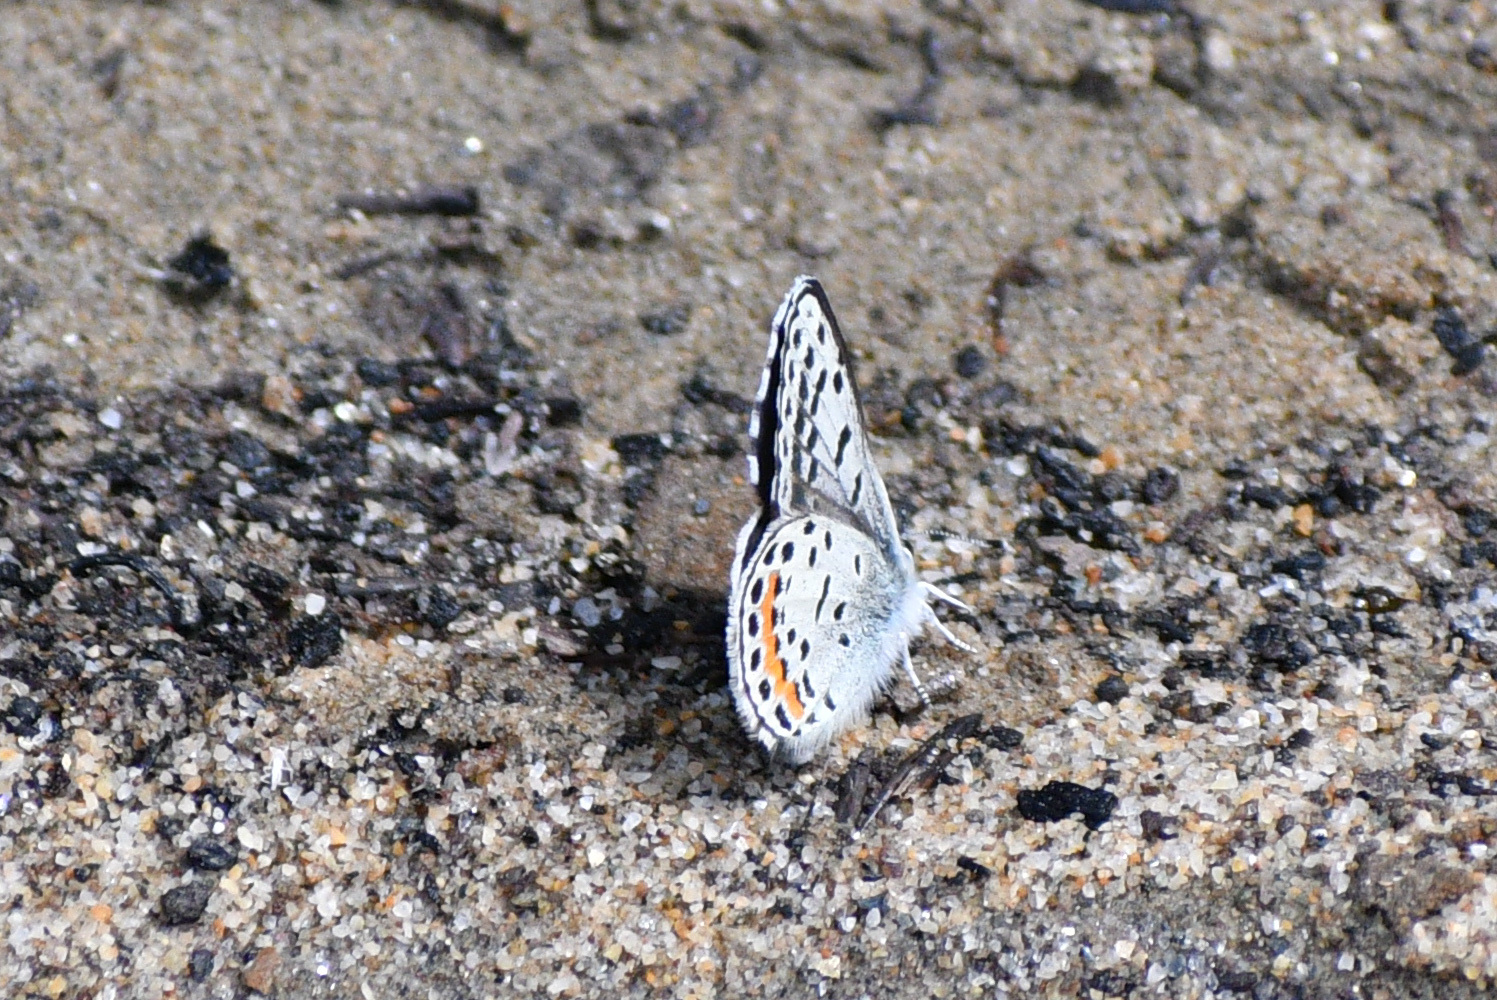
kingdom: Animalia
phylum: Arthropoda
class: Insecta
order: Lepidoptera
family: Lycaenidae
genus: Euphilotes
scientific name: Euphilotes
